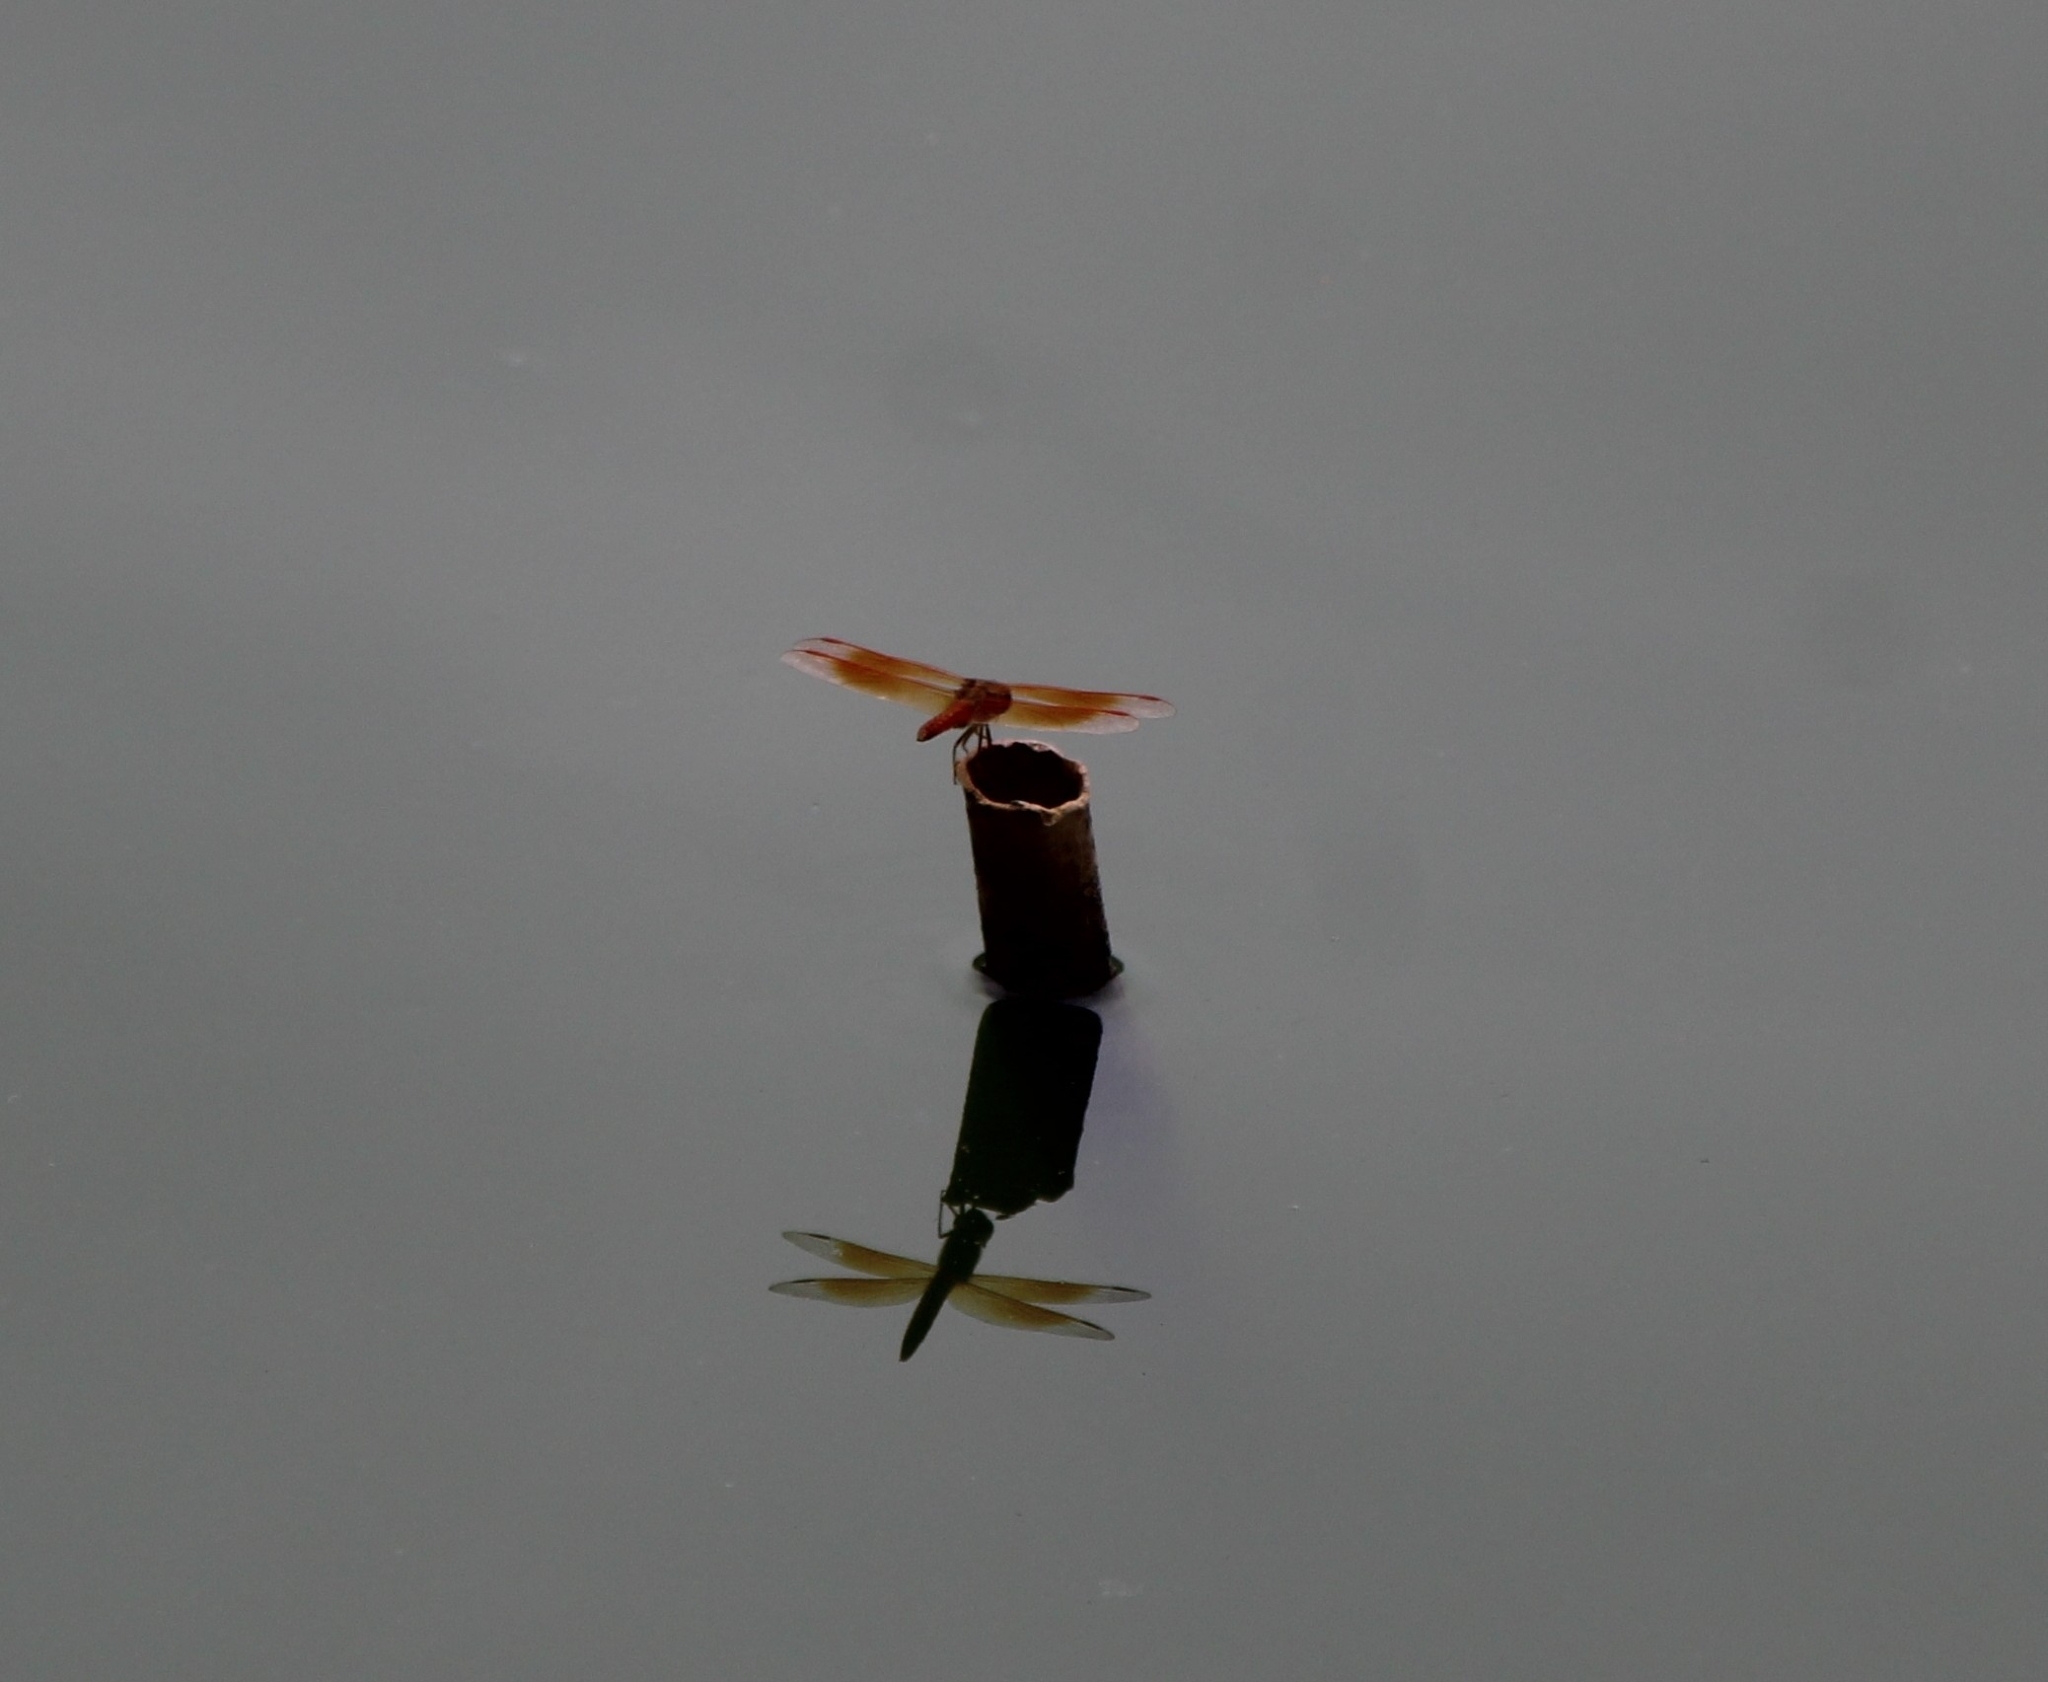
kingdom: Animalia
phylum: Arthropoda
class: Insecta
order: Odonata
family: Libellulidae
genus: Brachythemis
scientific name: Brachythemis contaminata
